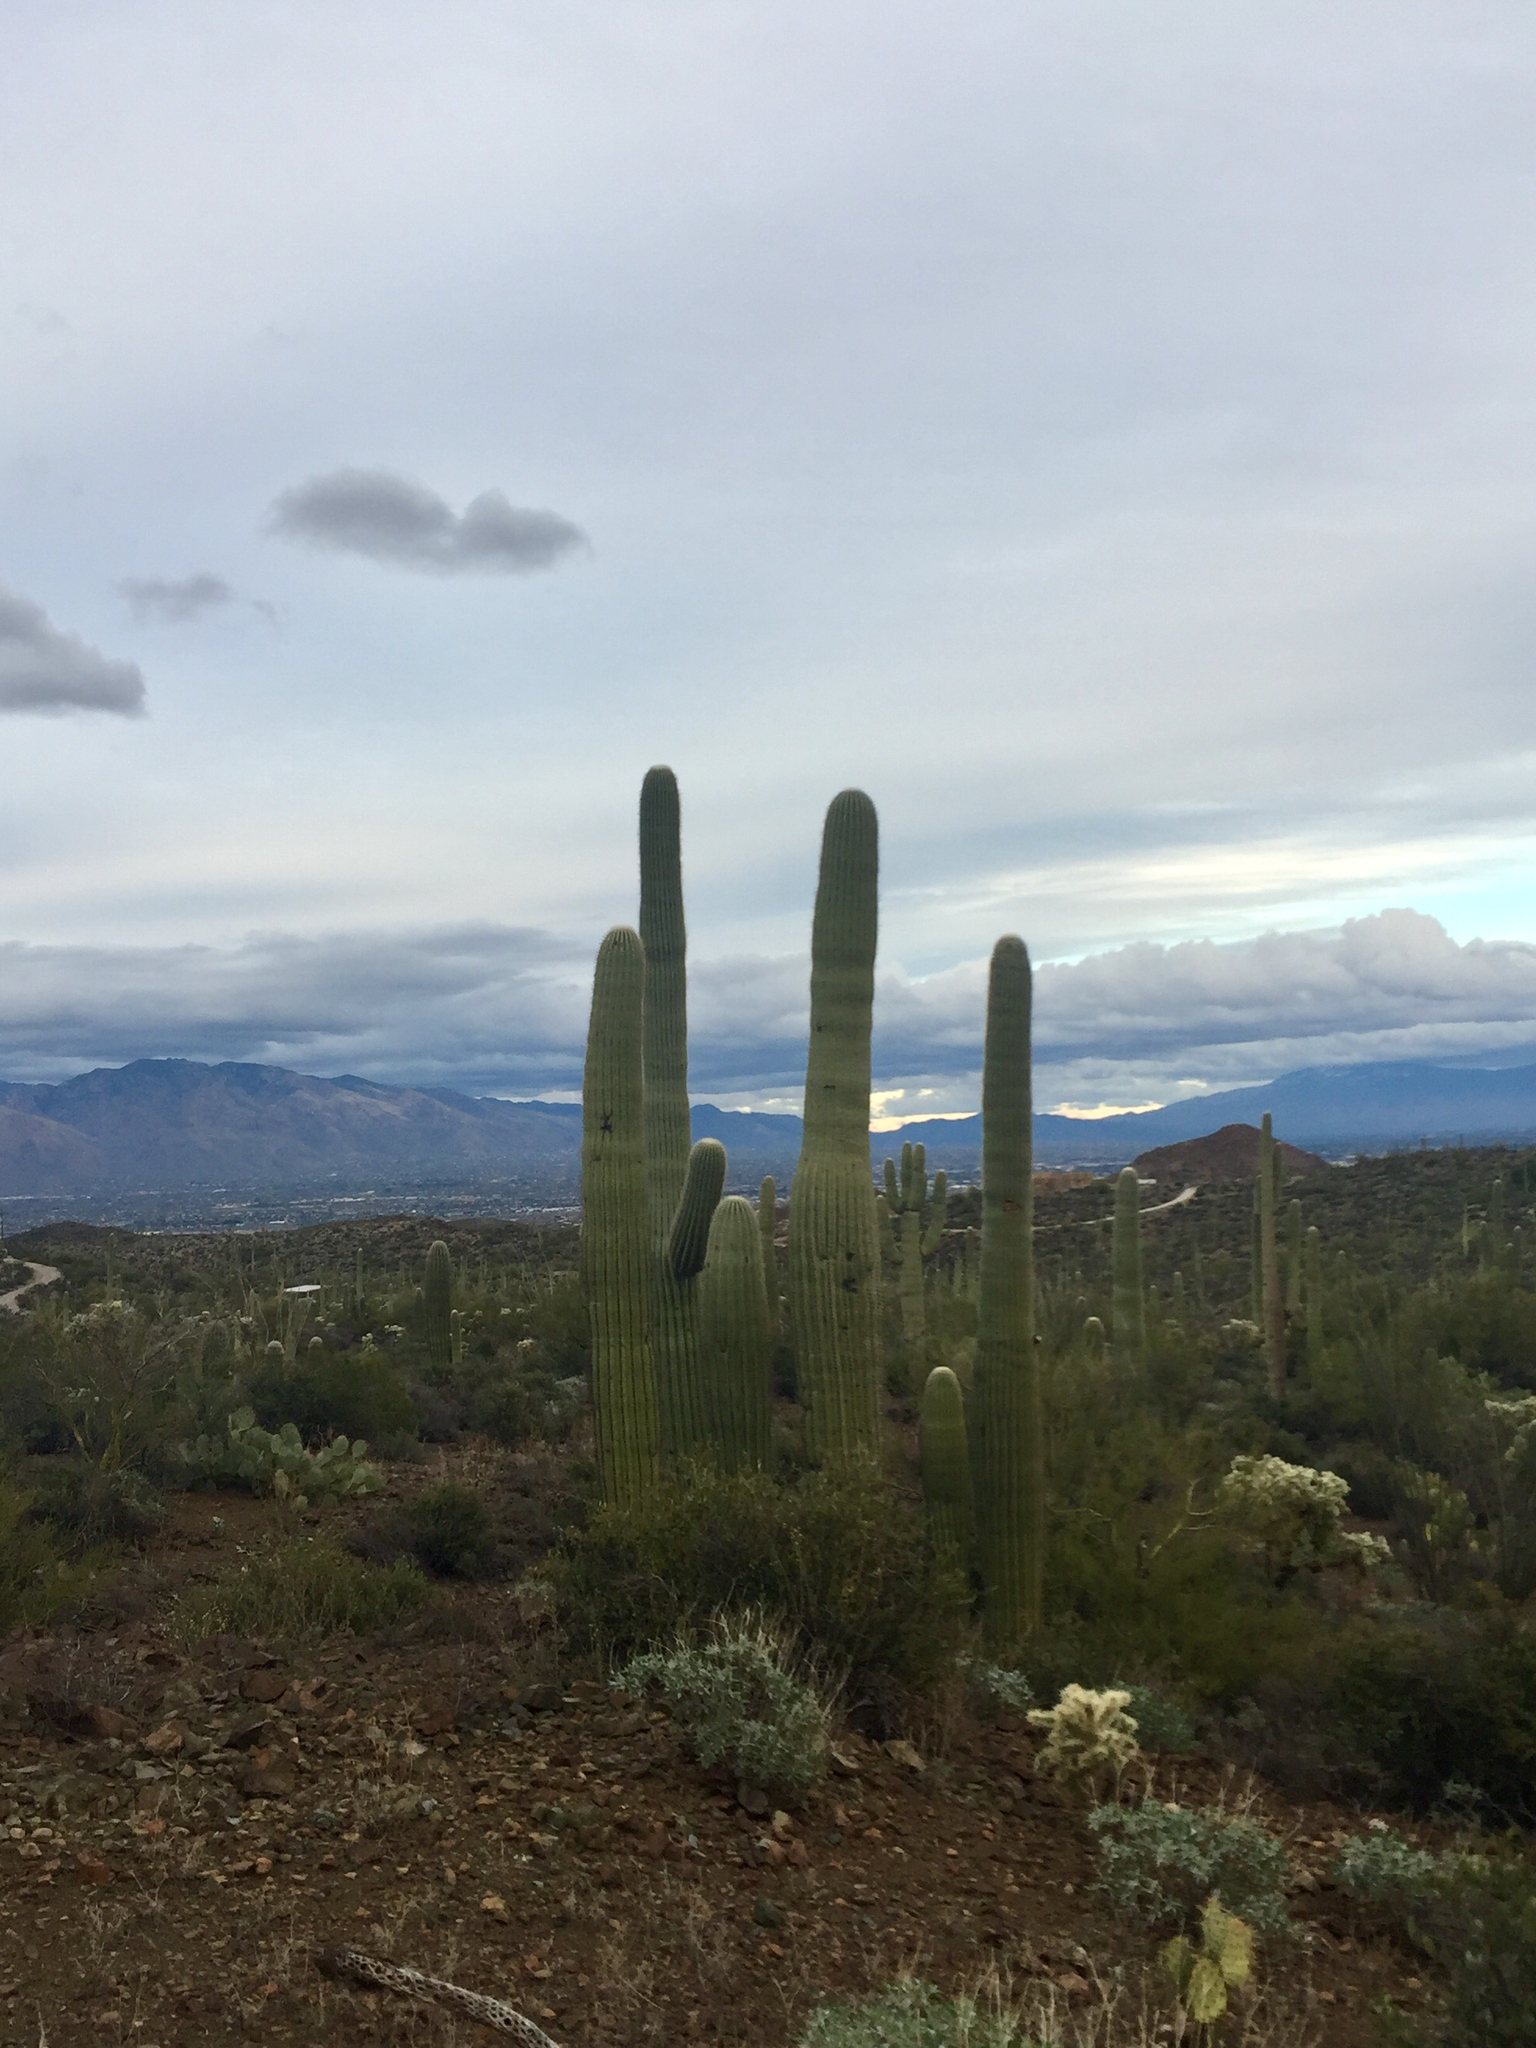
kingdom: Plantae
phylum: Tracheophyta
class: Magnoliopsida
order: Caryophyllales
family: Cactaceae
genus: Carnegiea
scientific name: Carnegiea gigantea
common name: Saguaro
